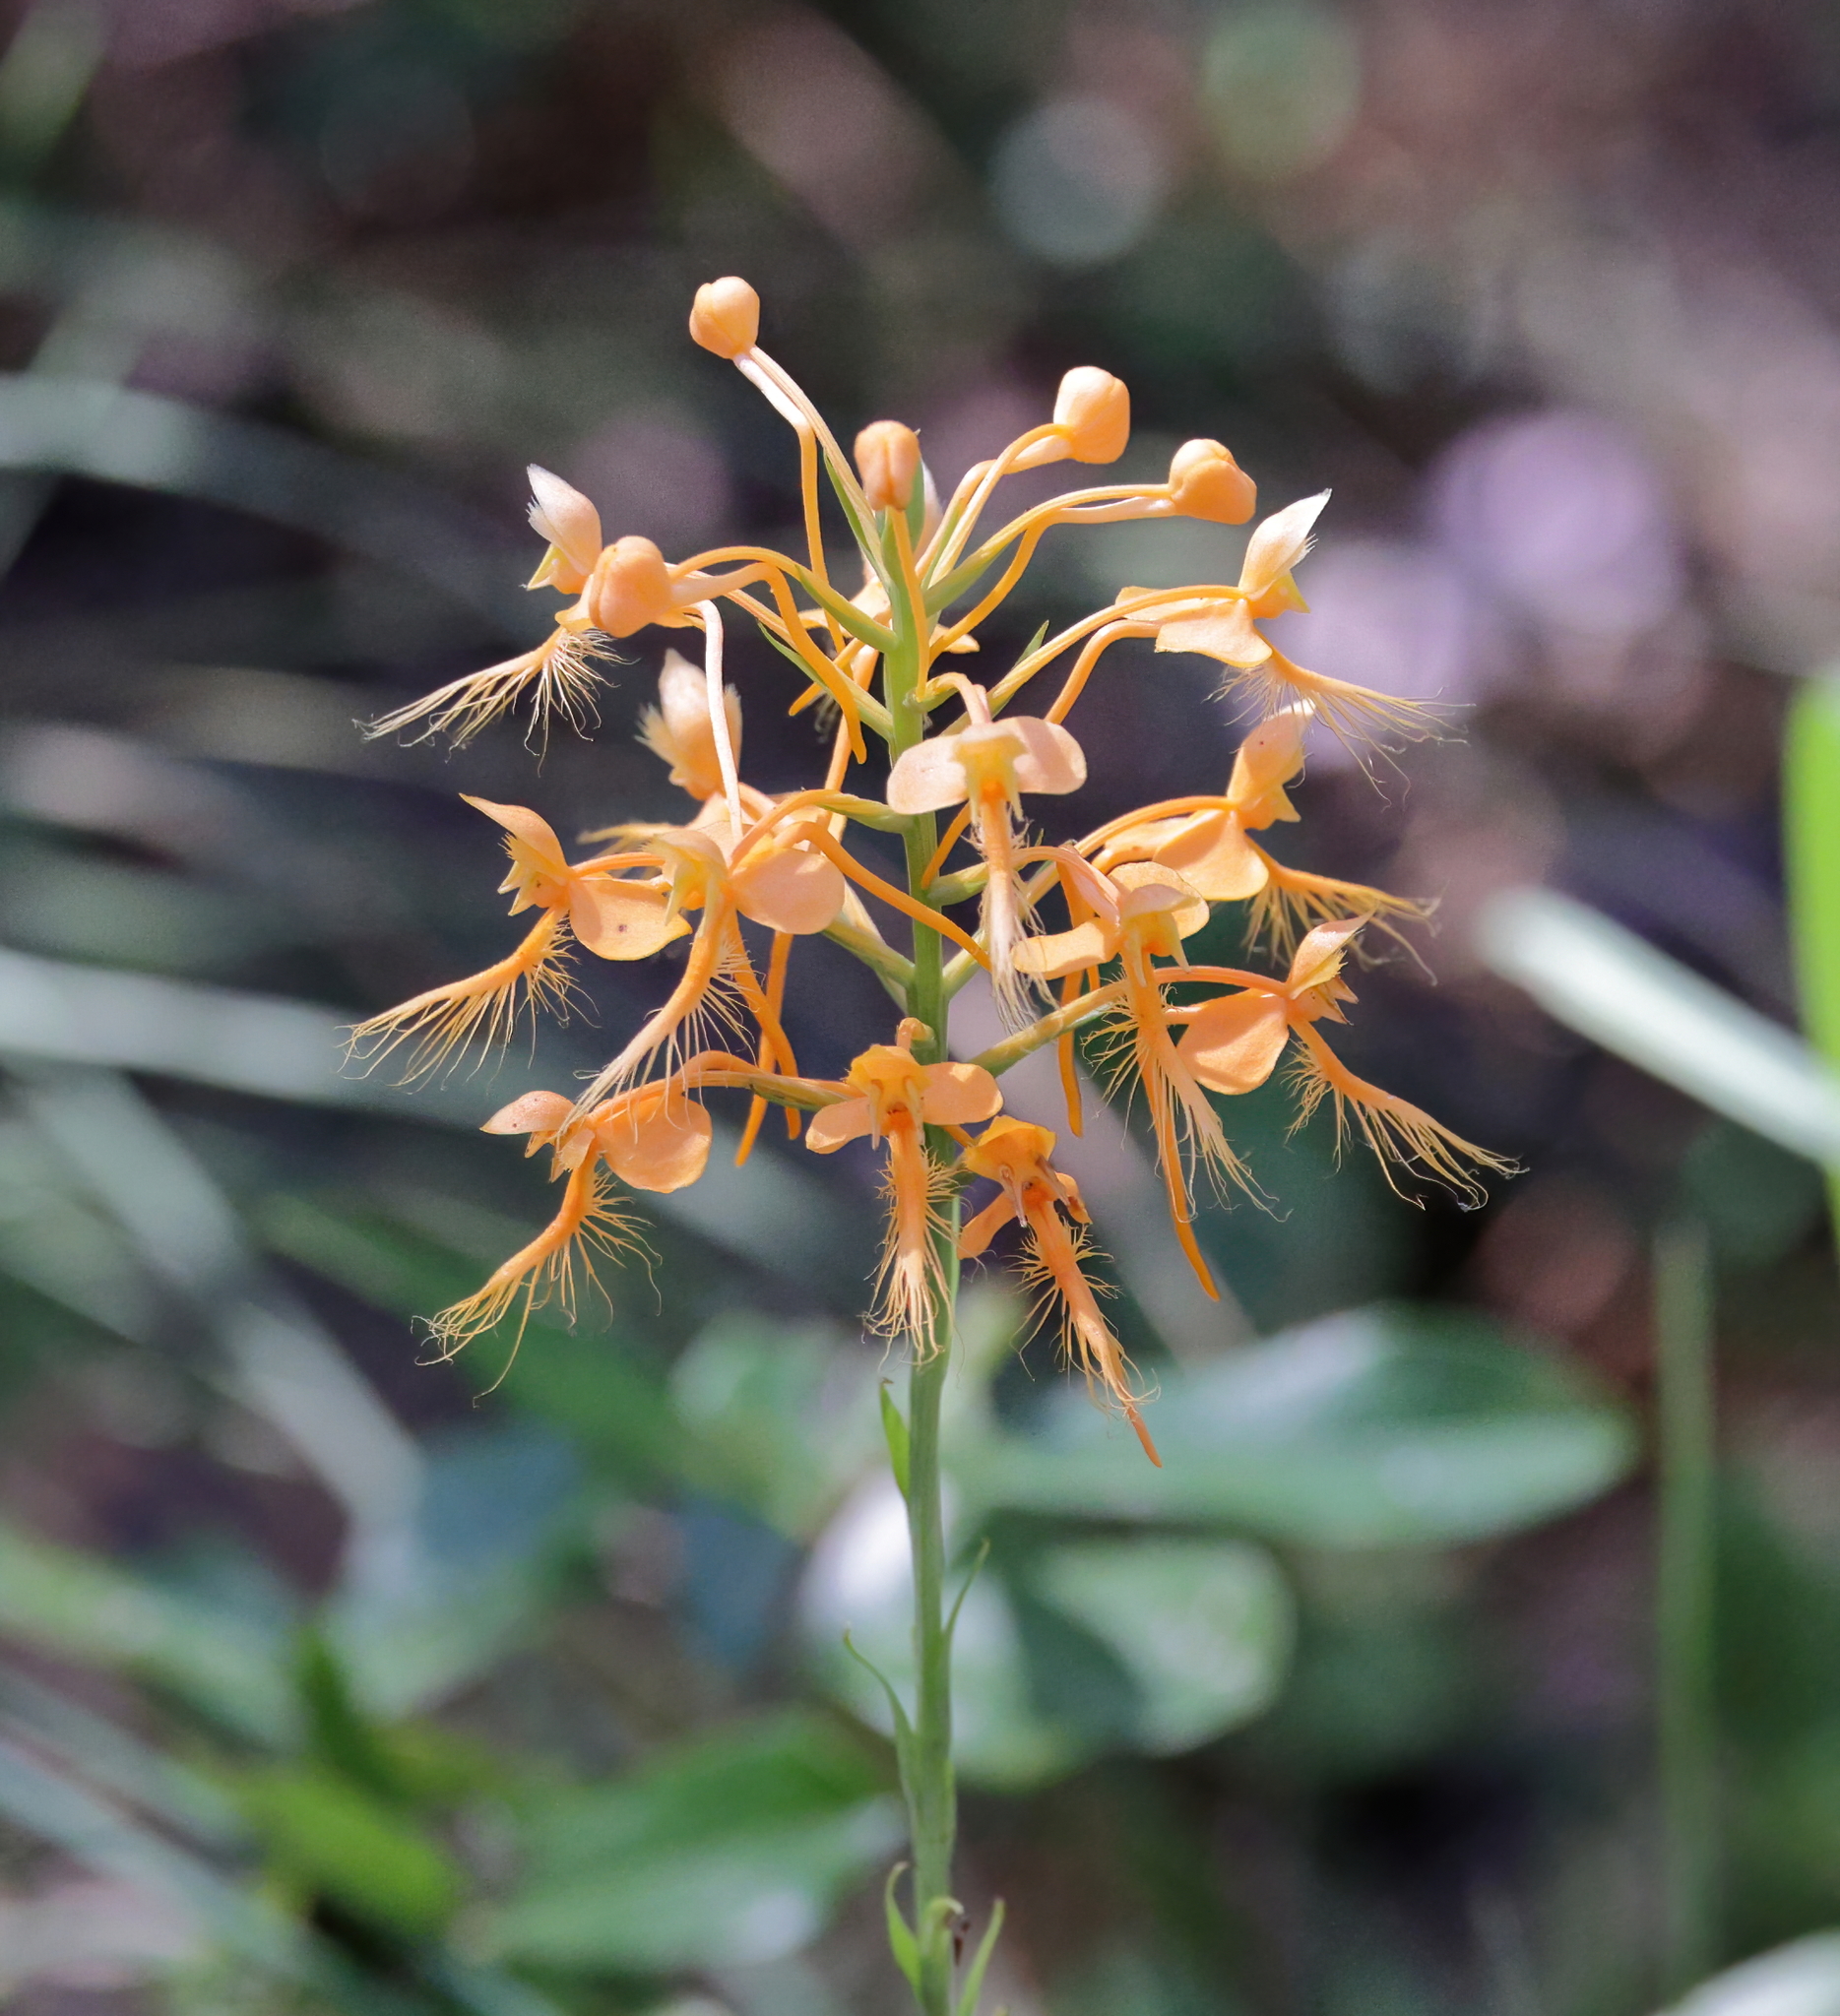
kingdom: Plantae
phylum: Tracheophyta
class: Liliopsida
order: Asparagales
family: Orchidaceae
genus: Platanthera
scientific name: Platanthera ciliaris
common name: Yellow fringed orchid
